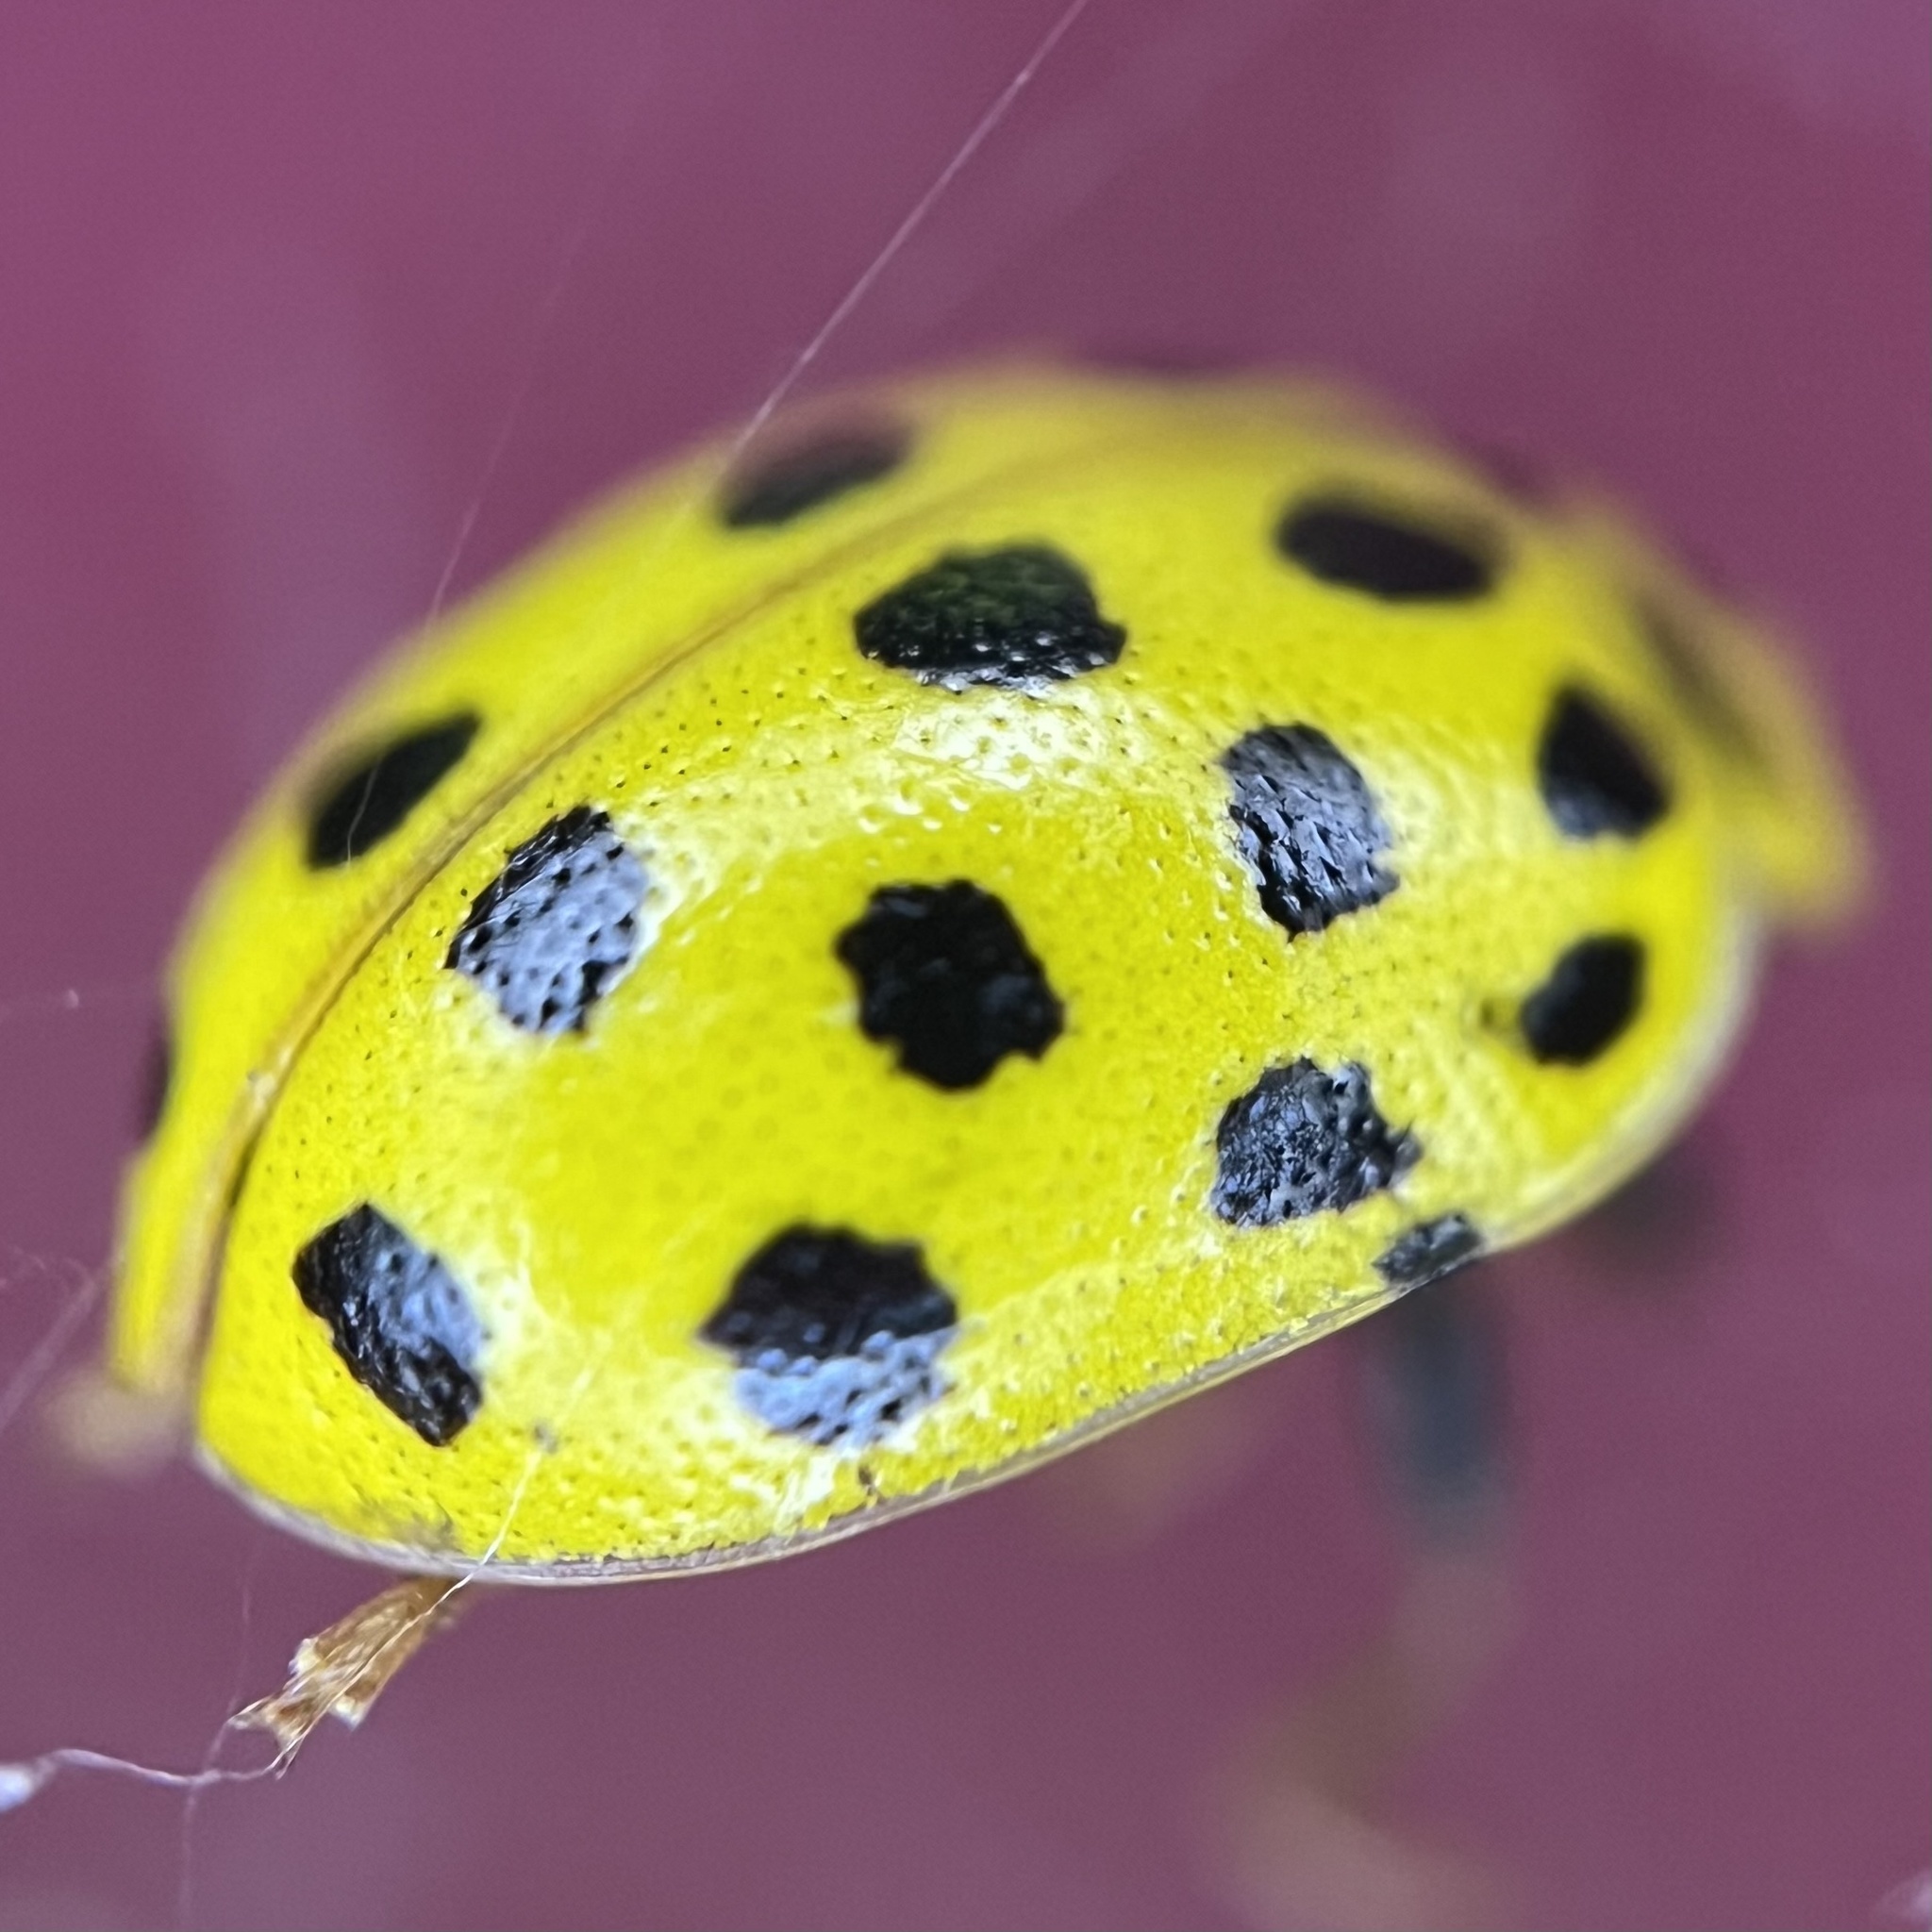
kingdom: Animalia
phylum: Arthropoda
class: Insecta
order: Coleoptera
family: Coccinellidae
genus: Psyllobora
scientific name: Psyllobora vigintiduopunctata
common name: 22-spot ladybird
